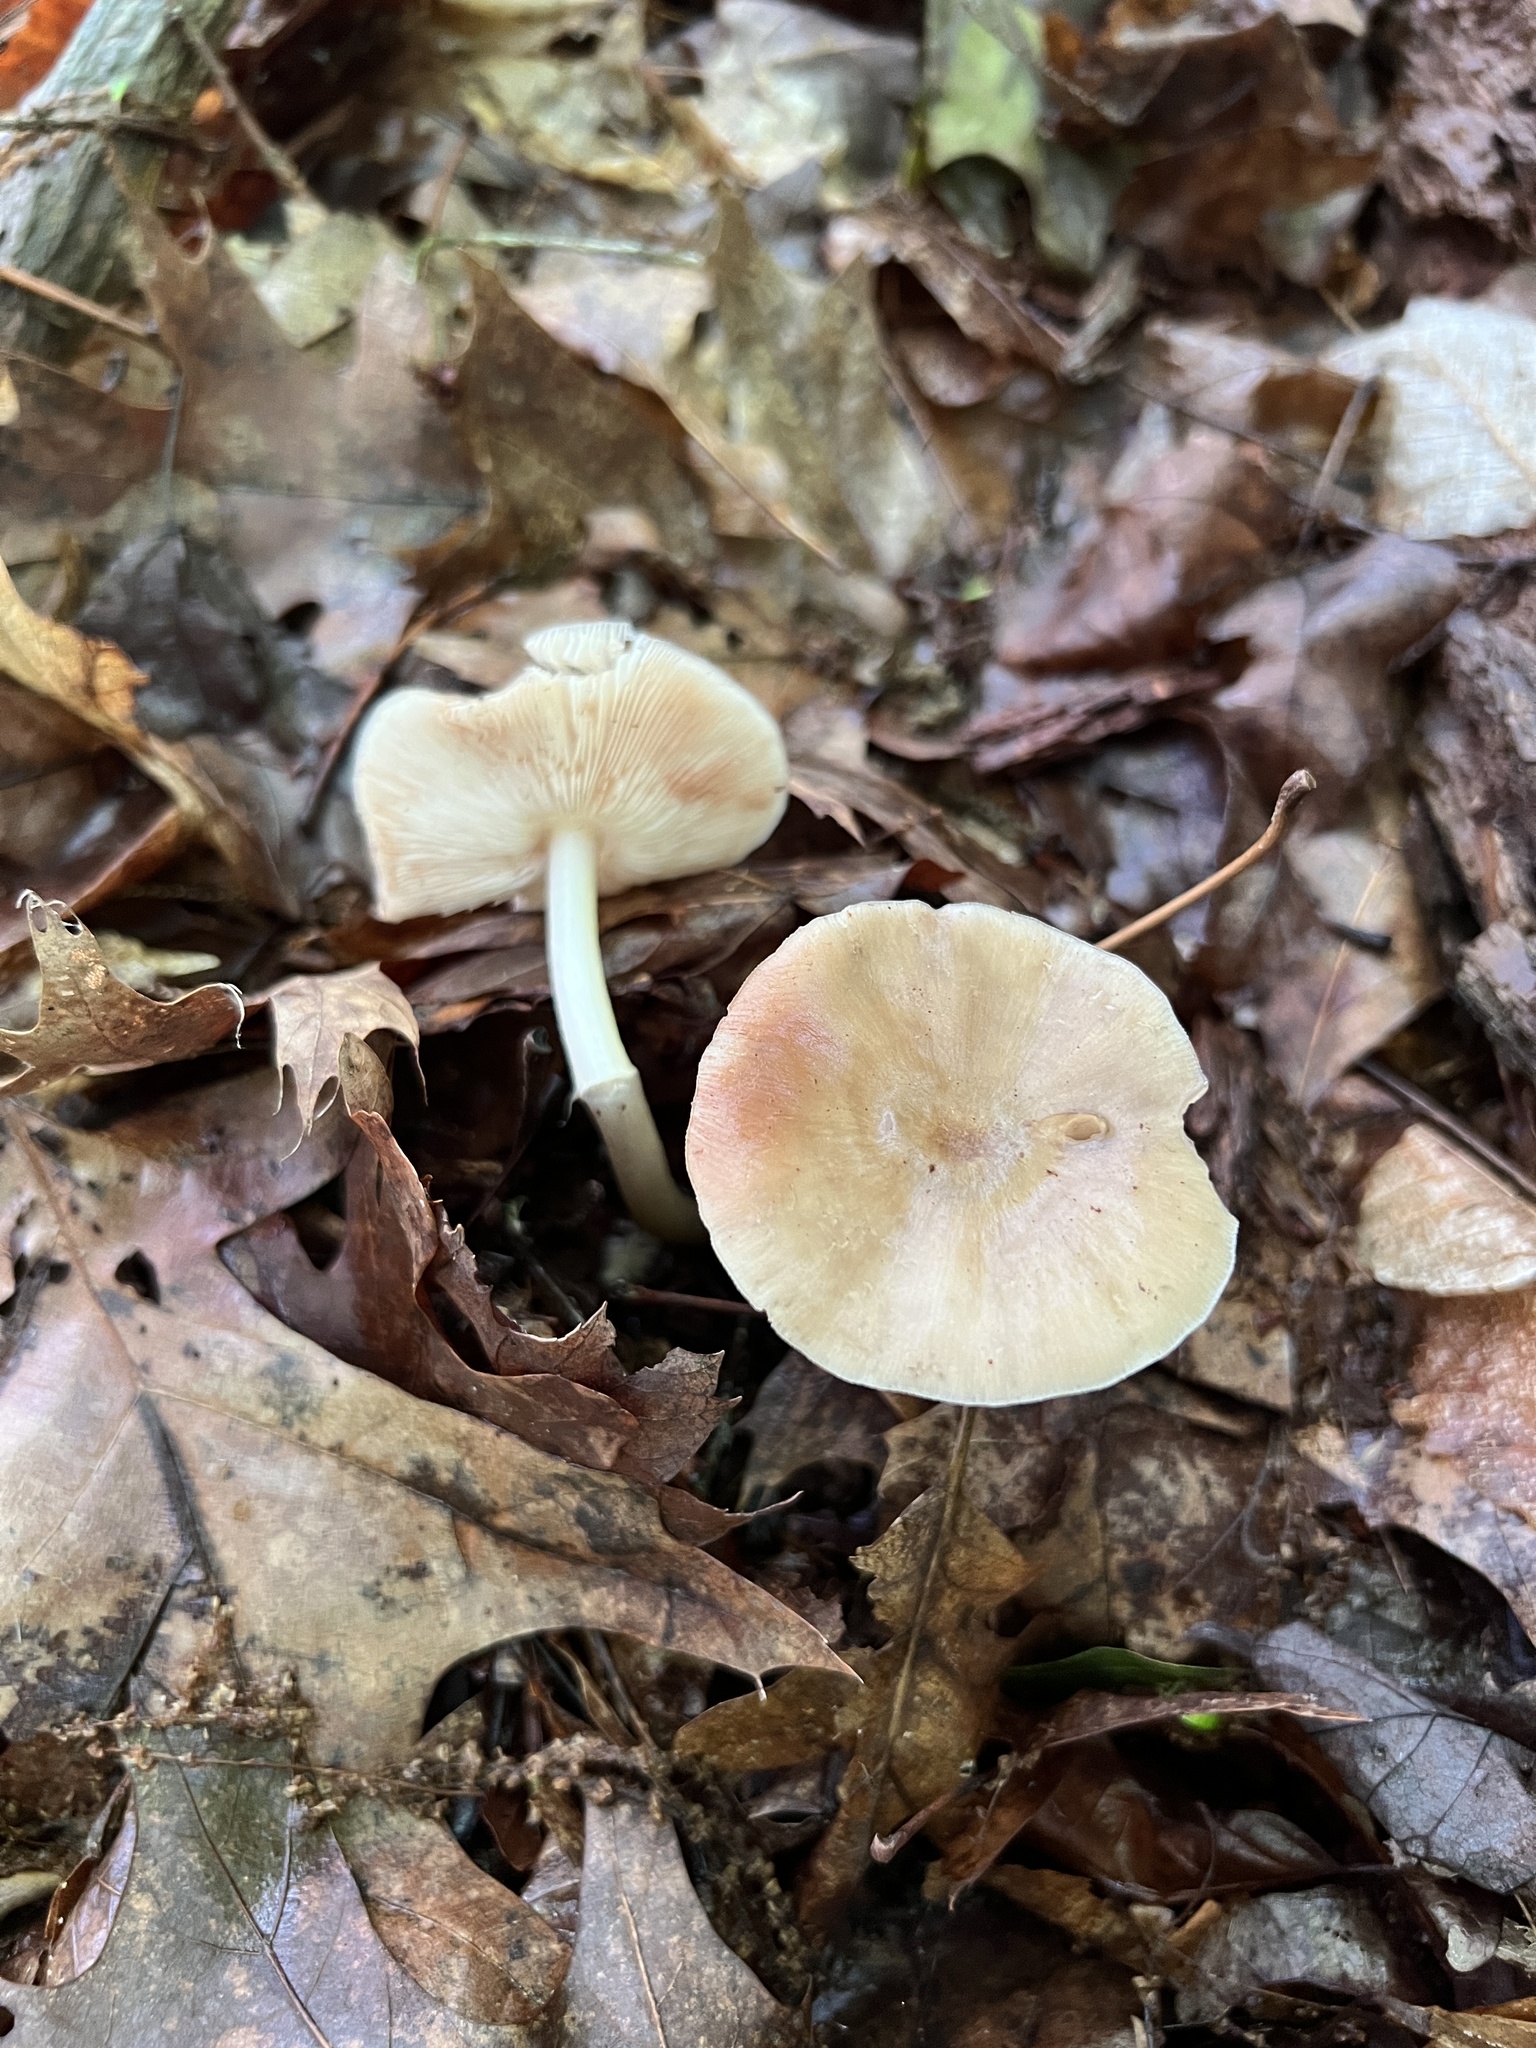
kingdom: Fungi
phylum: Basidiomycota
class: Agaricomycetes
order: Agaricales
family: Omphalotaceae
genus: Gymnopus
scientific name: Gymnopus dryophilus
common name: Penny top
